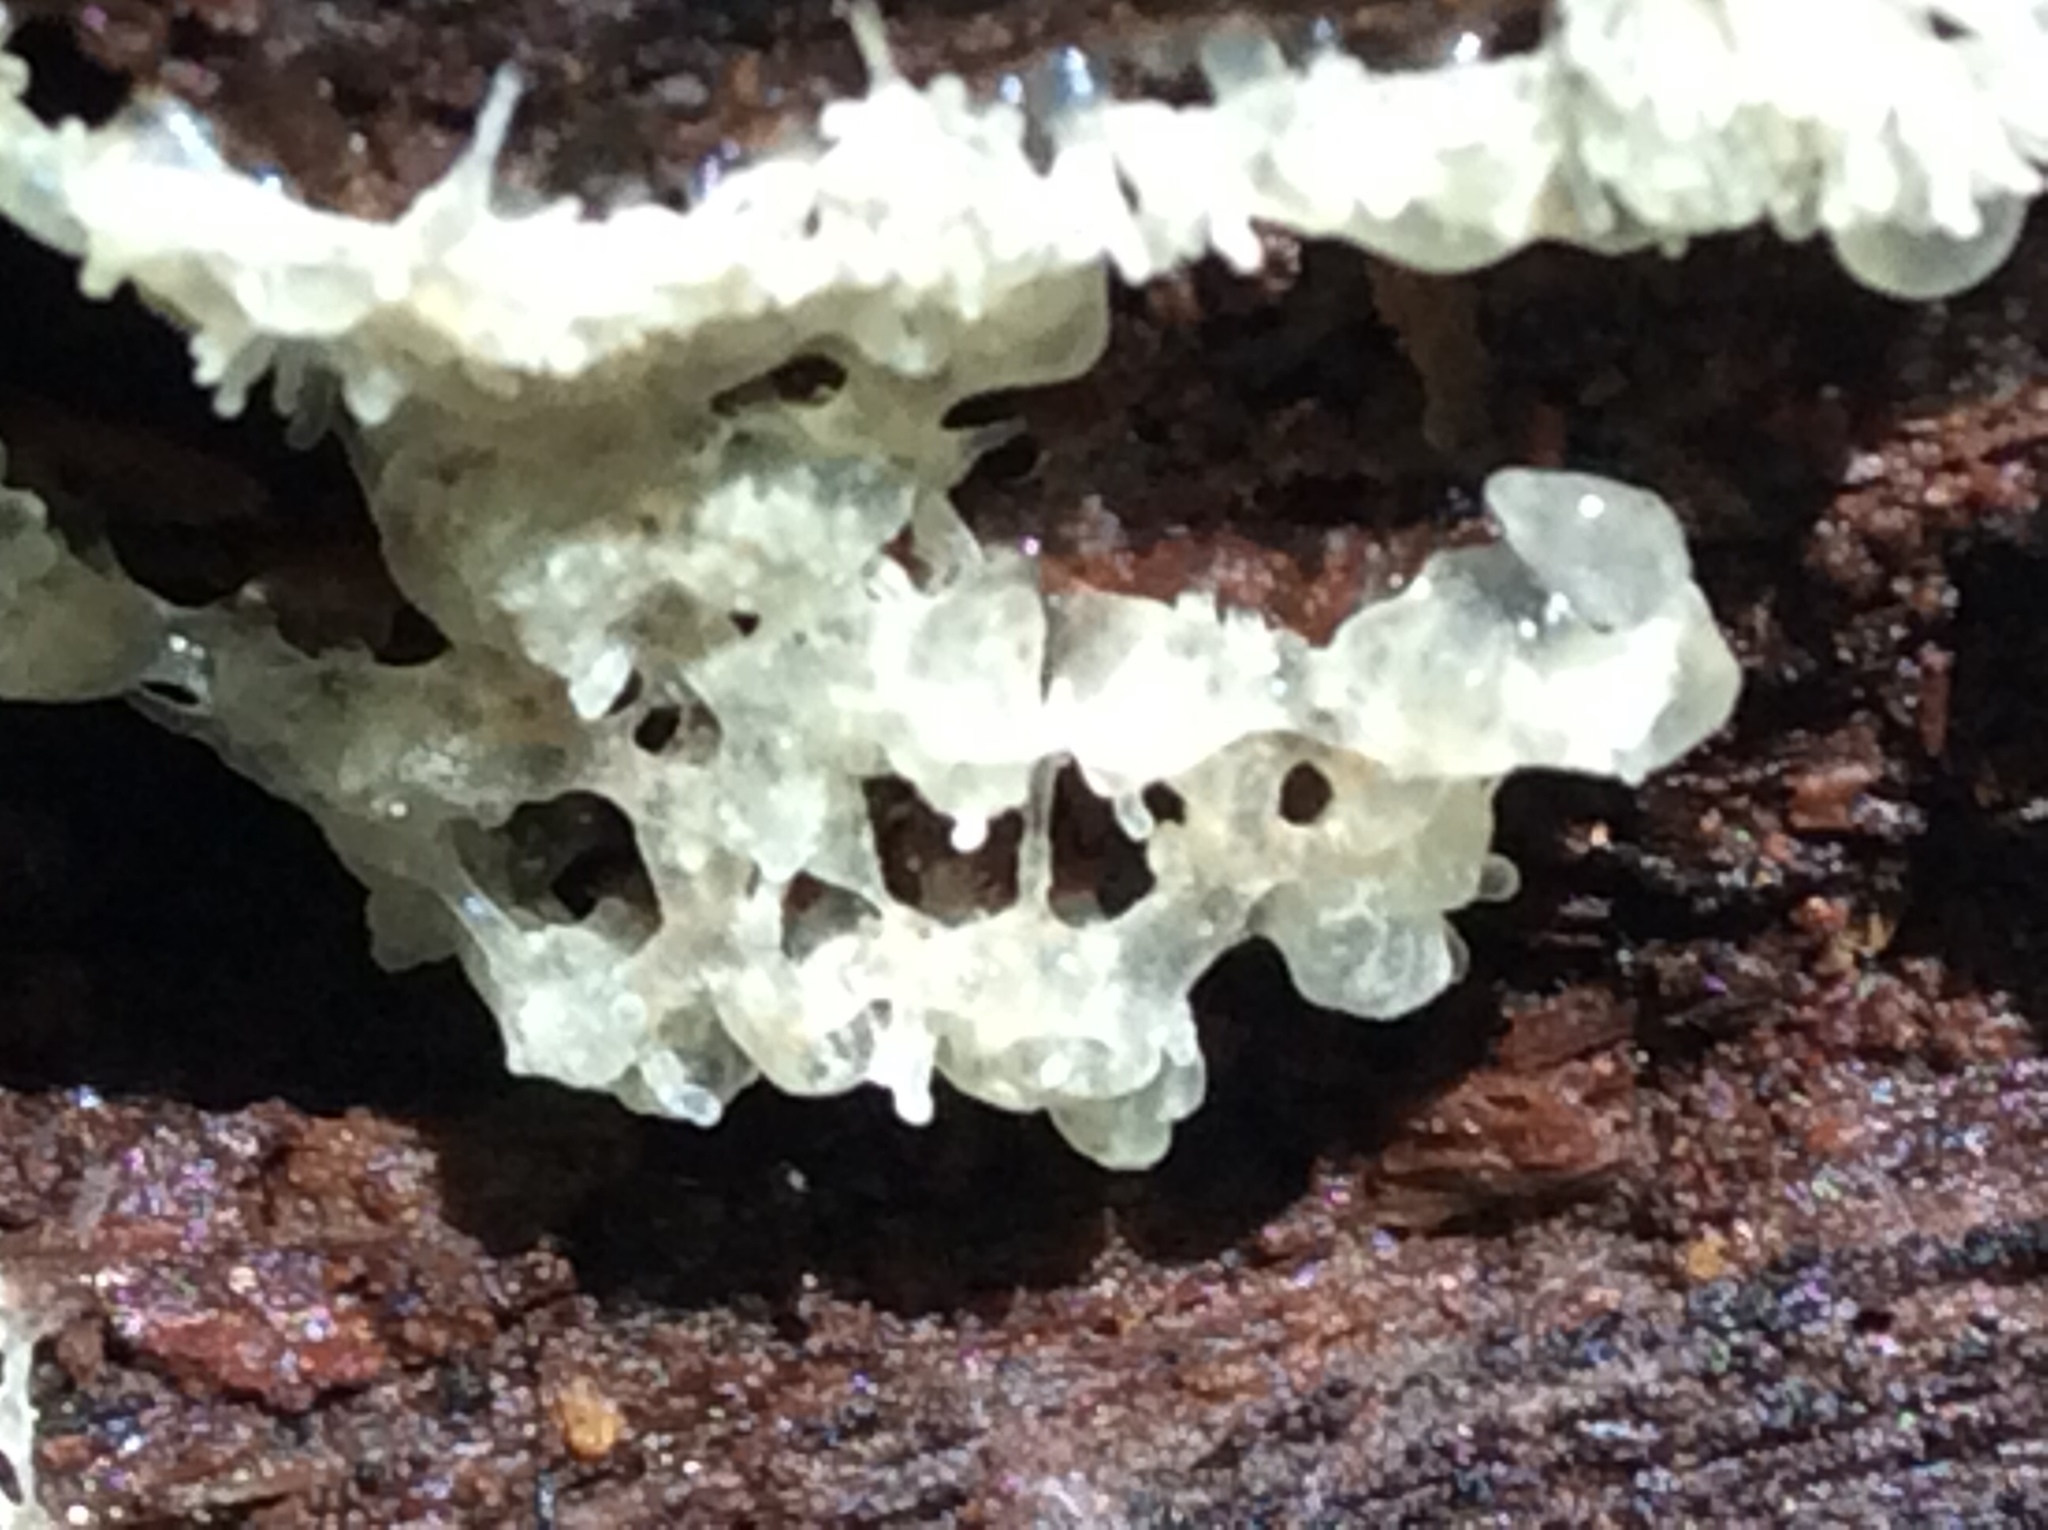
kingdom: Fungi
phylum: Basidiomycota
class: Tremellomycetes
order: Tremellales
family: Tremellaceae
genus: Tremella
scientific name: Tremella fuciformis
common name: Snow fungus
